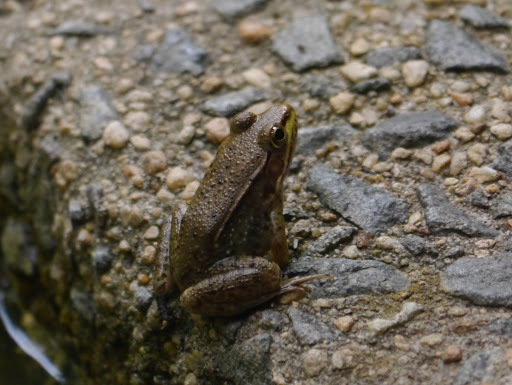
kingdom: Animalia
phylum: Chordata
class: Amphibia
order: Anura
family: Ranidae
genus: Lithobates
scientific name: Lithobates clamitans
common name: Green frog
